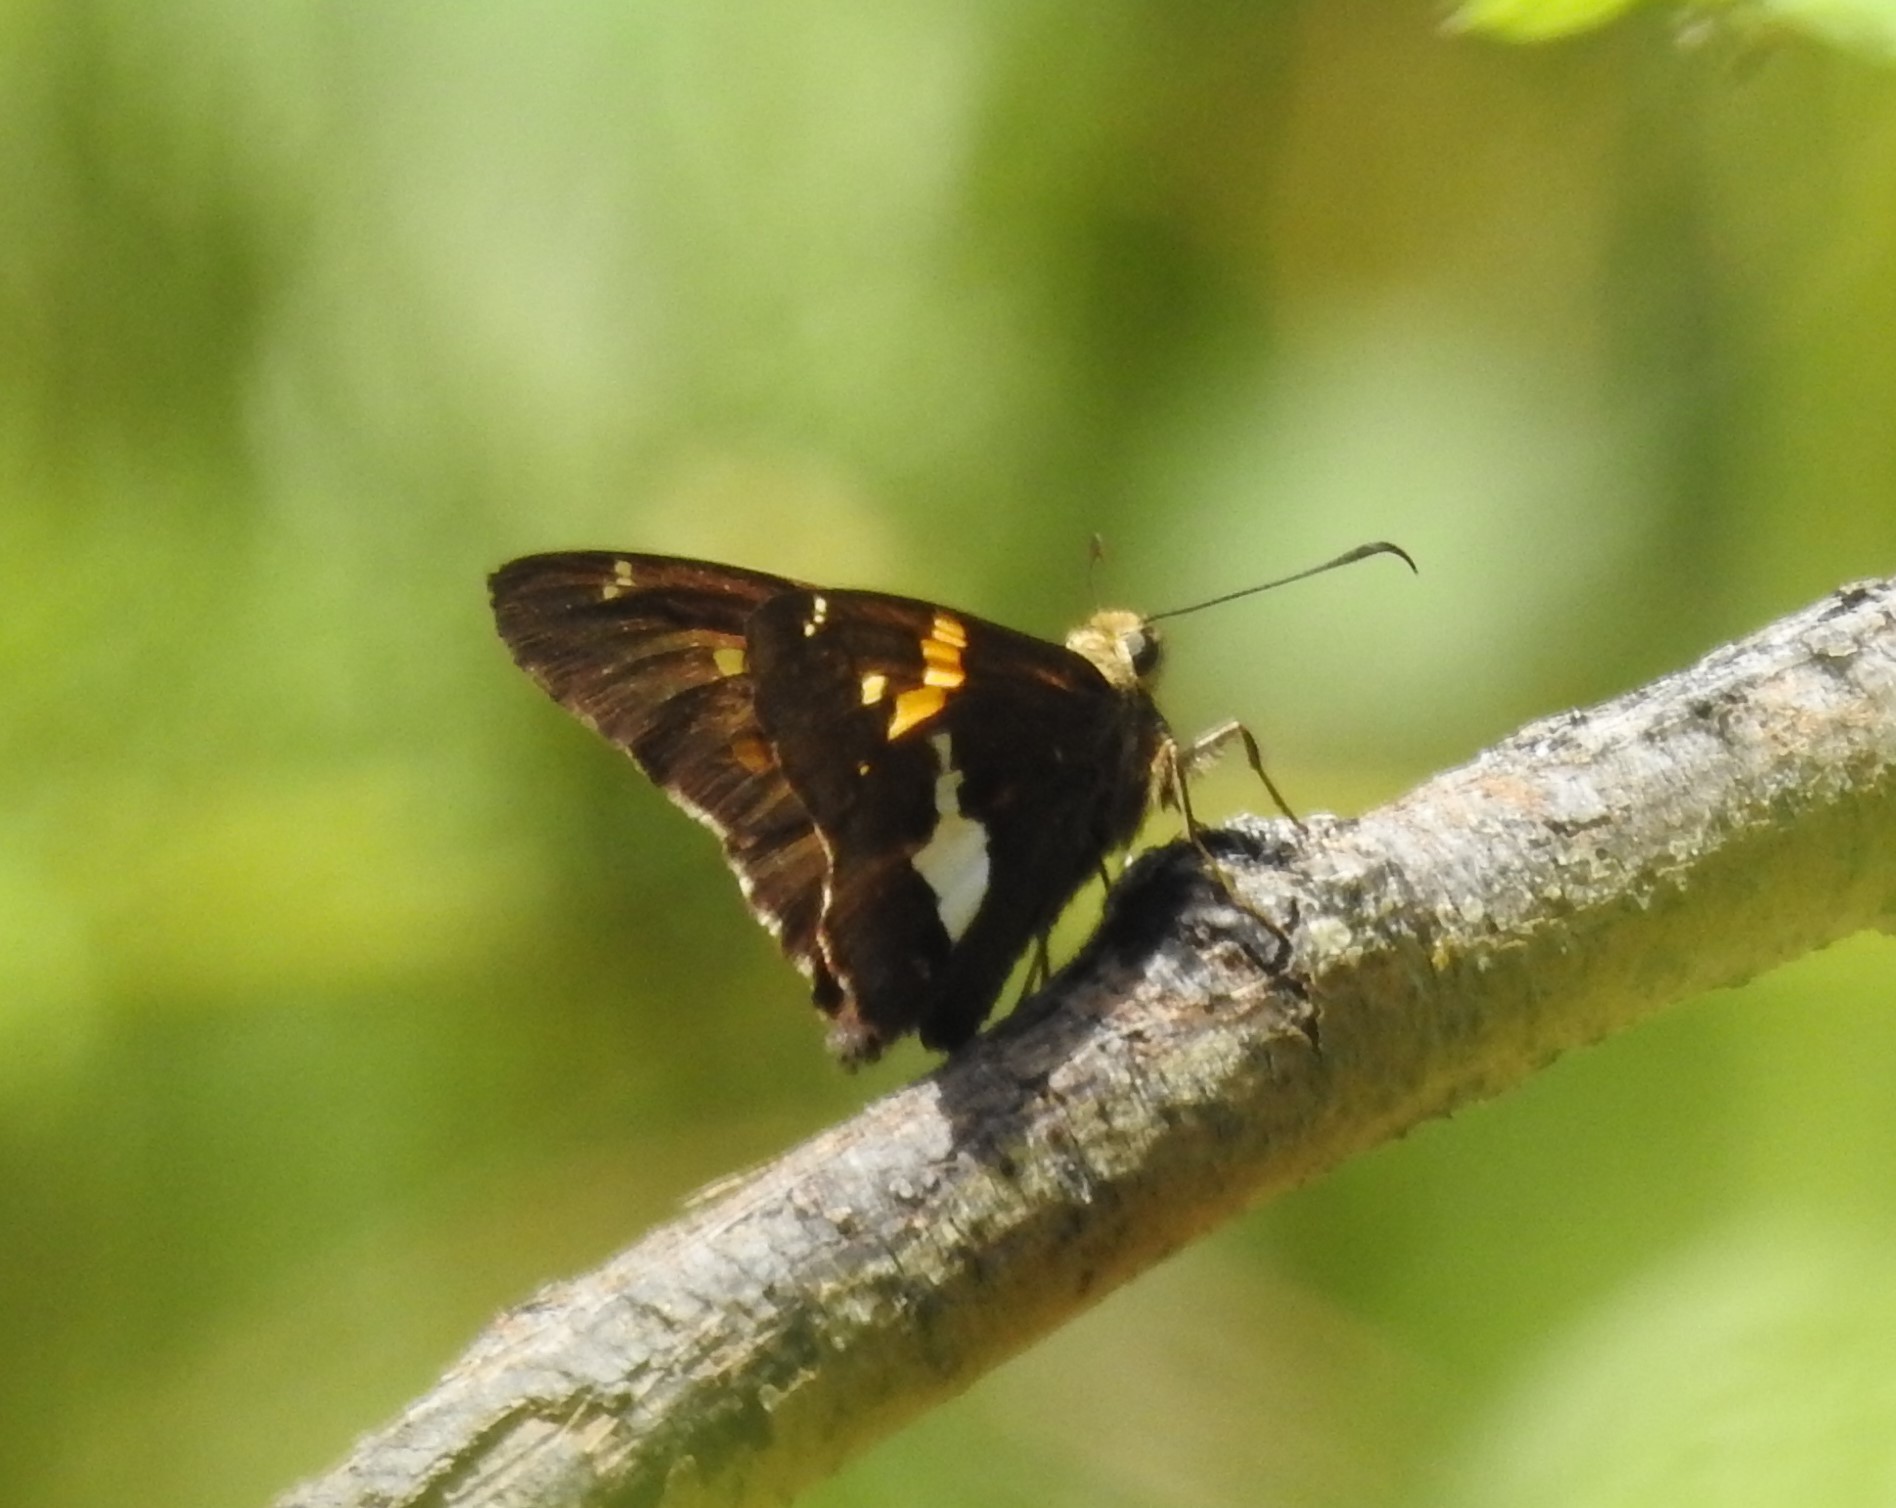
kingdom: Animalia
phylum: Arthropoda
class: Insecta
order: Lepidoptera
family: Hesperiidae
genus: Epargyreus
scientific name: Epargyreus clarus
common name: Silver-spotted skipper
